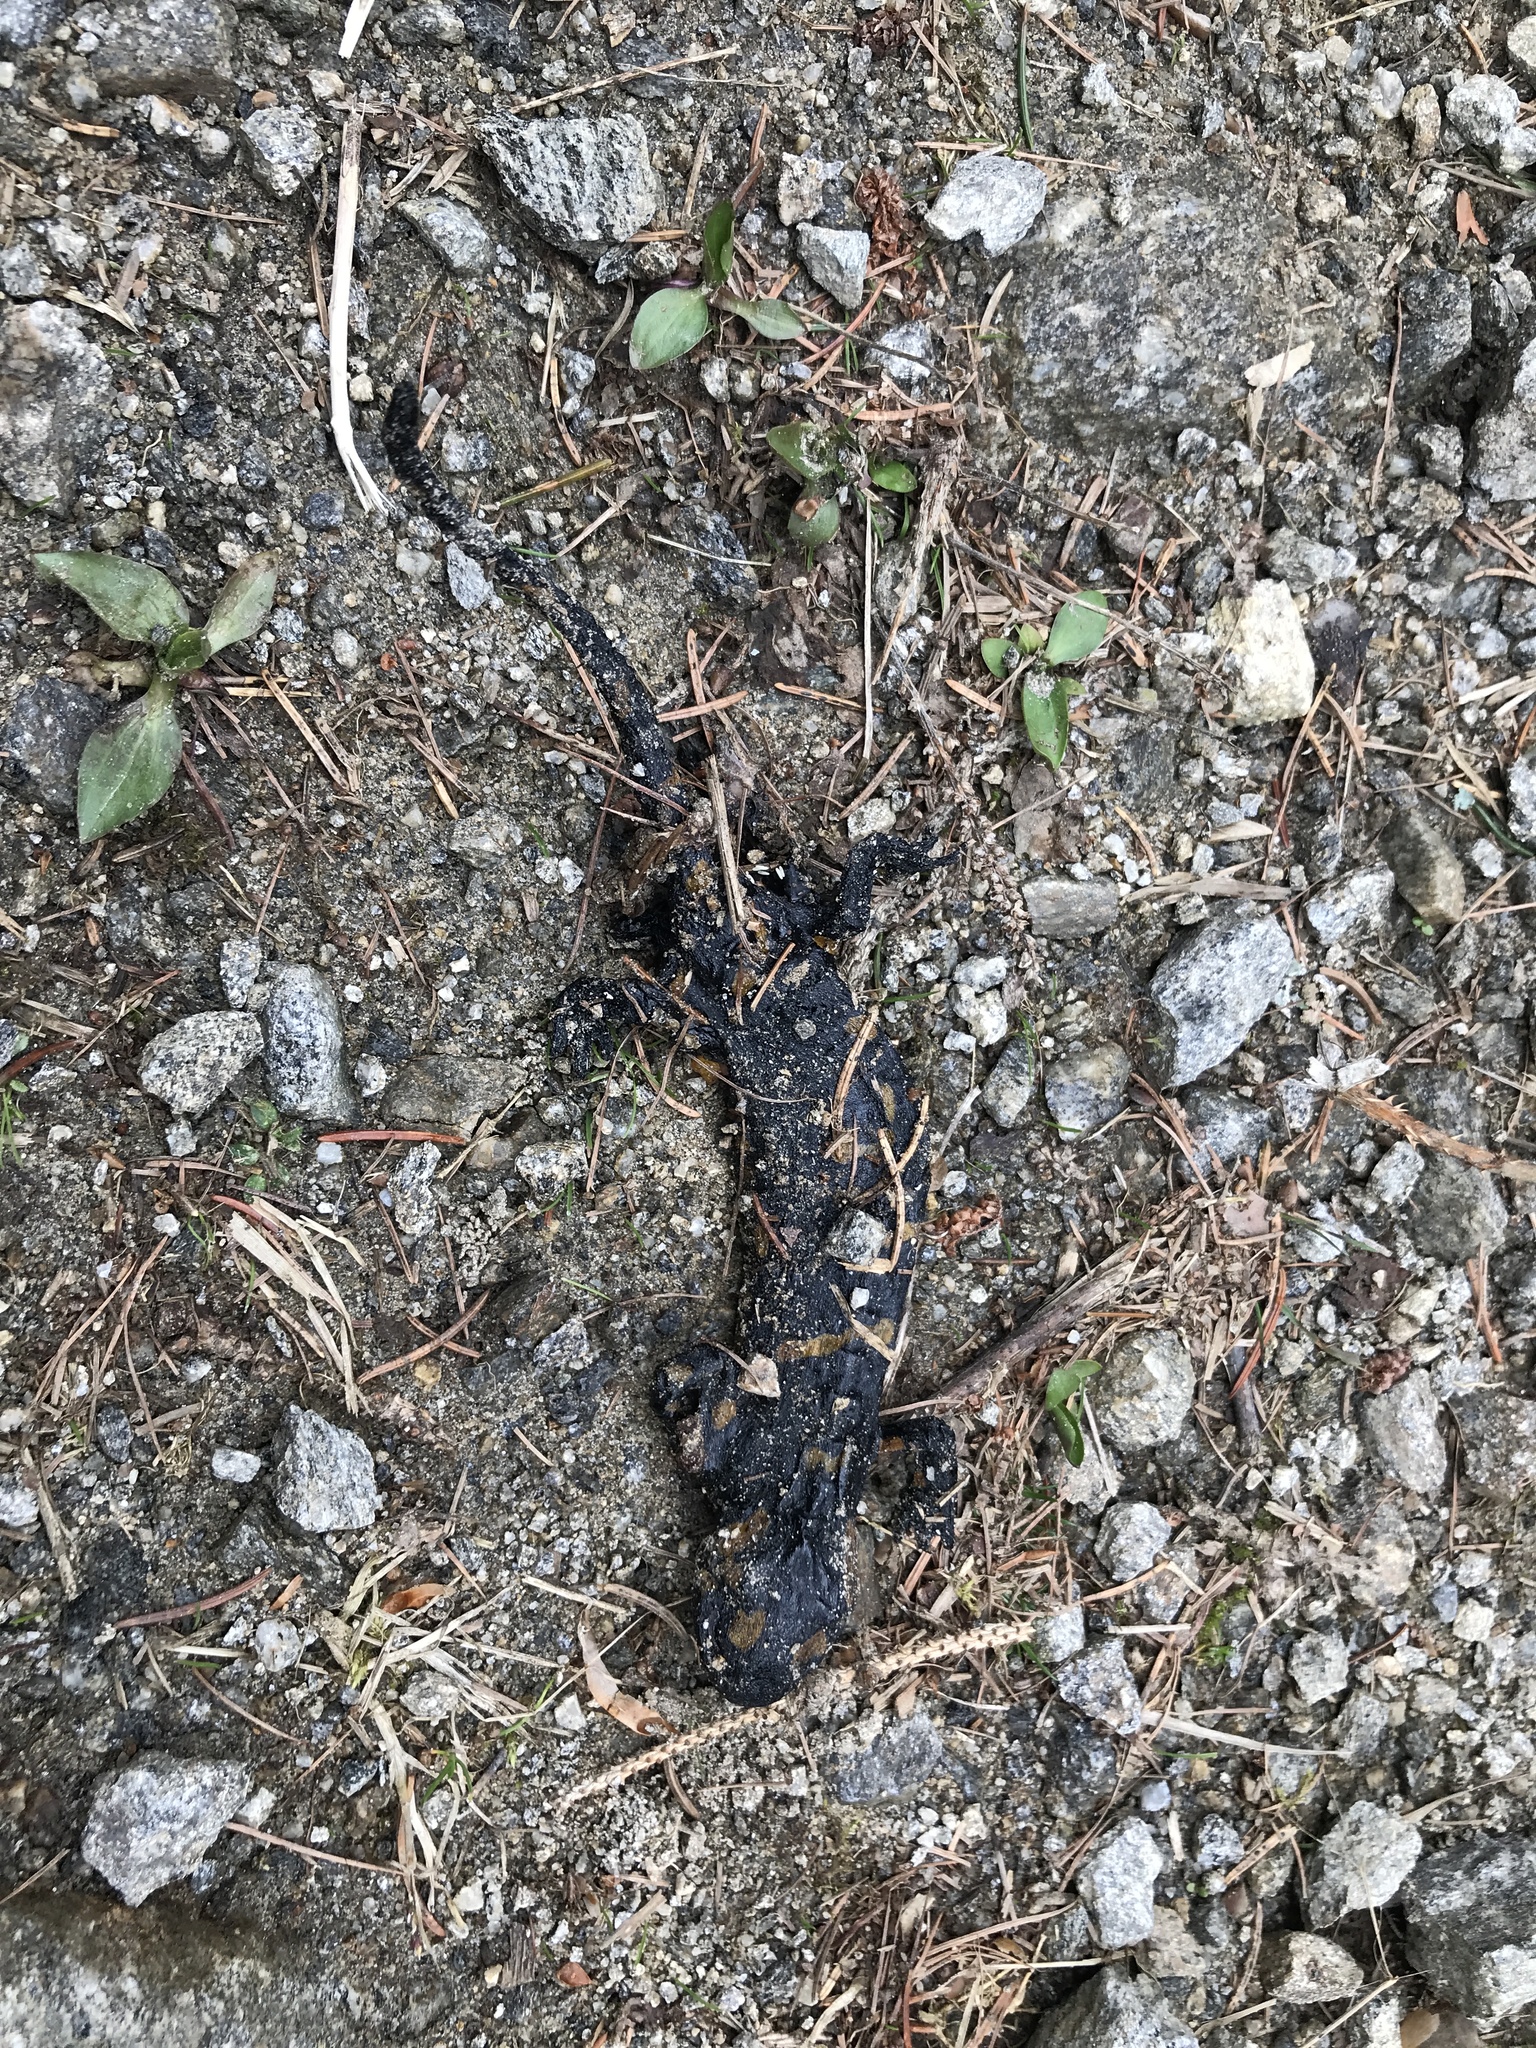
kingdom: Animalia
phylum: Chordata
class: Amphibia
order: Caudata
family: Salamandridae
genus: Salamandra
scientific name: Salamandra salamandra
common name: Fire salamander
